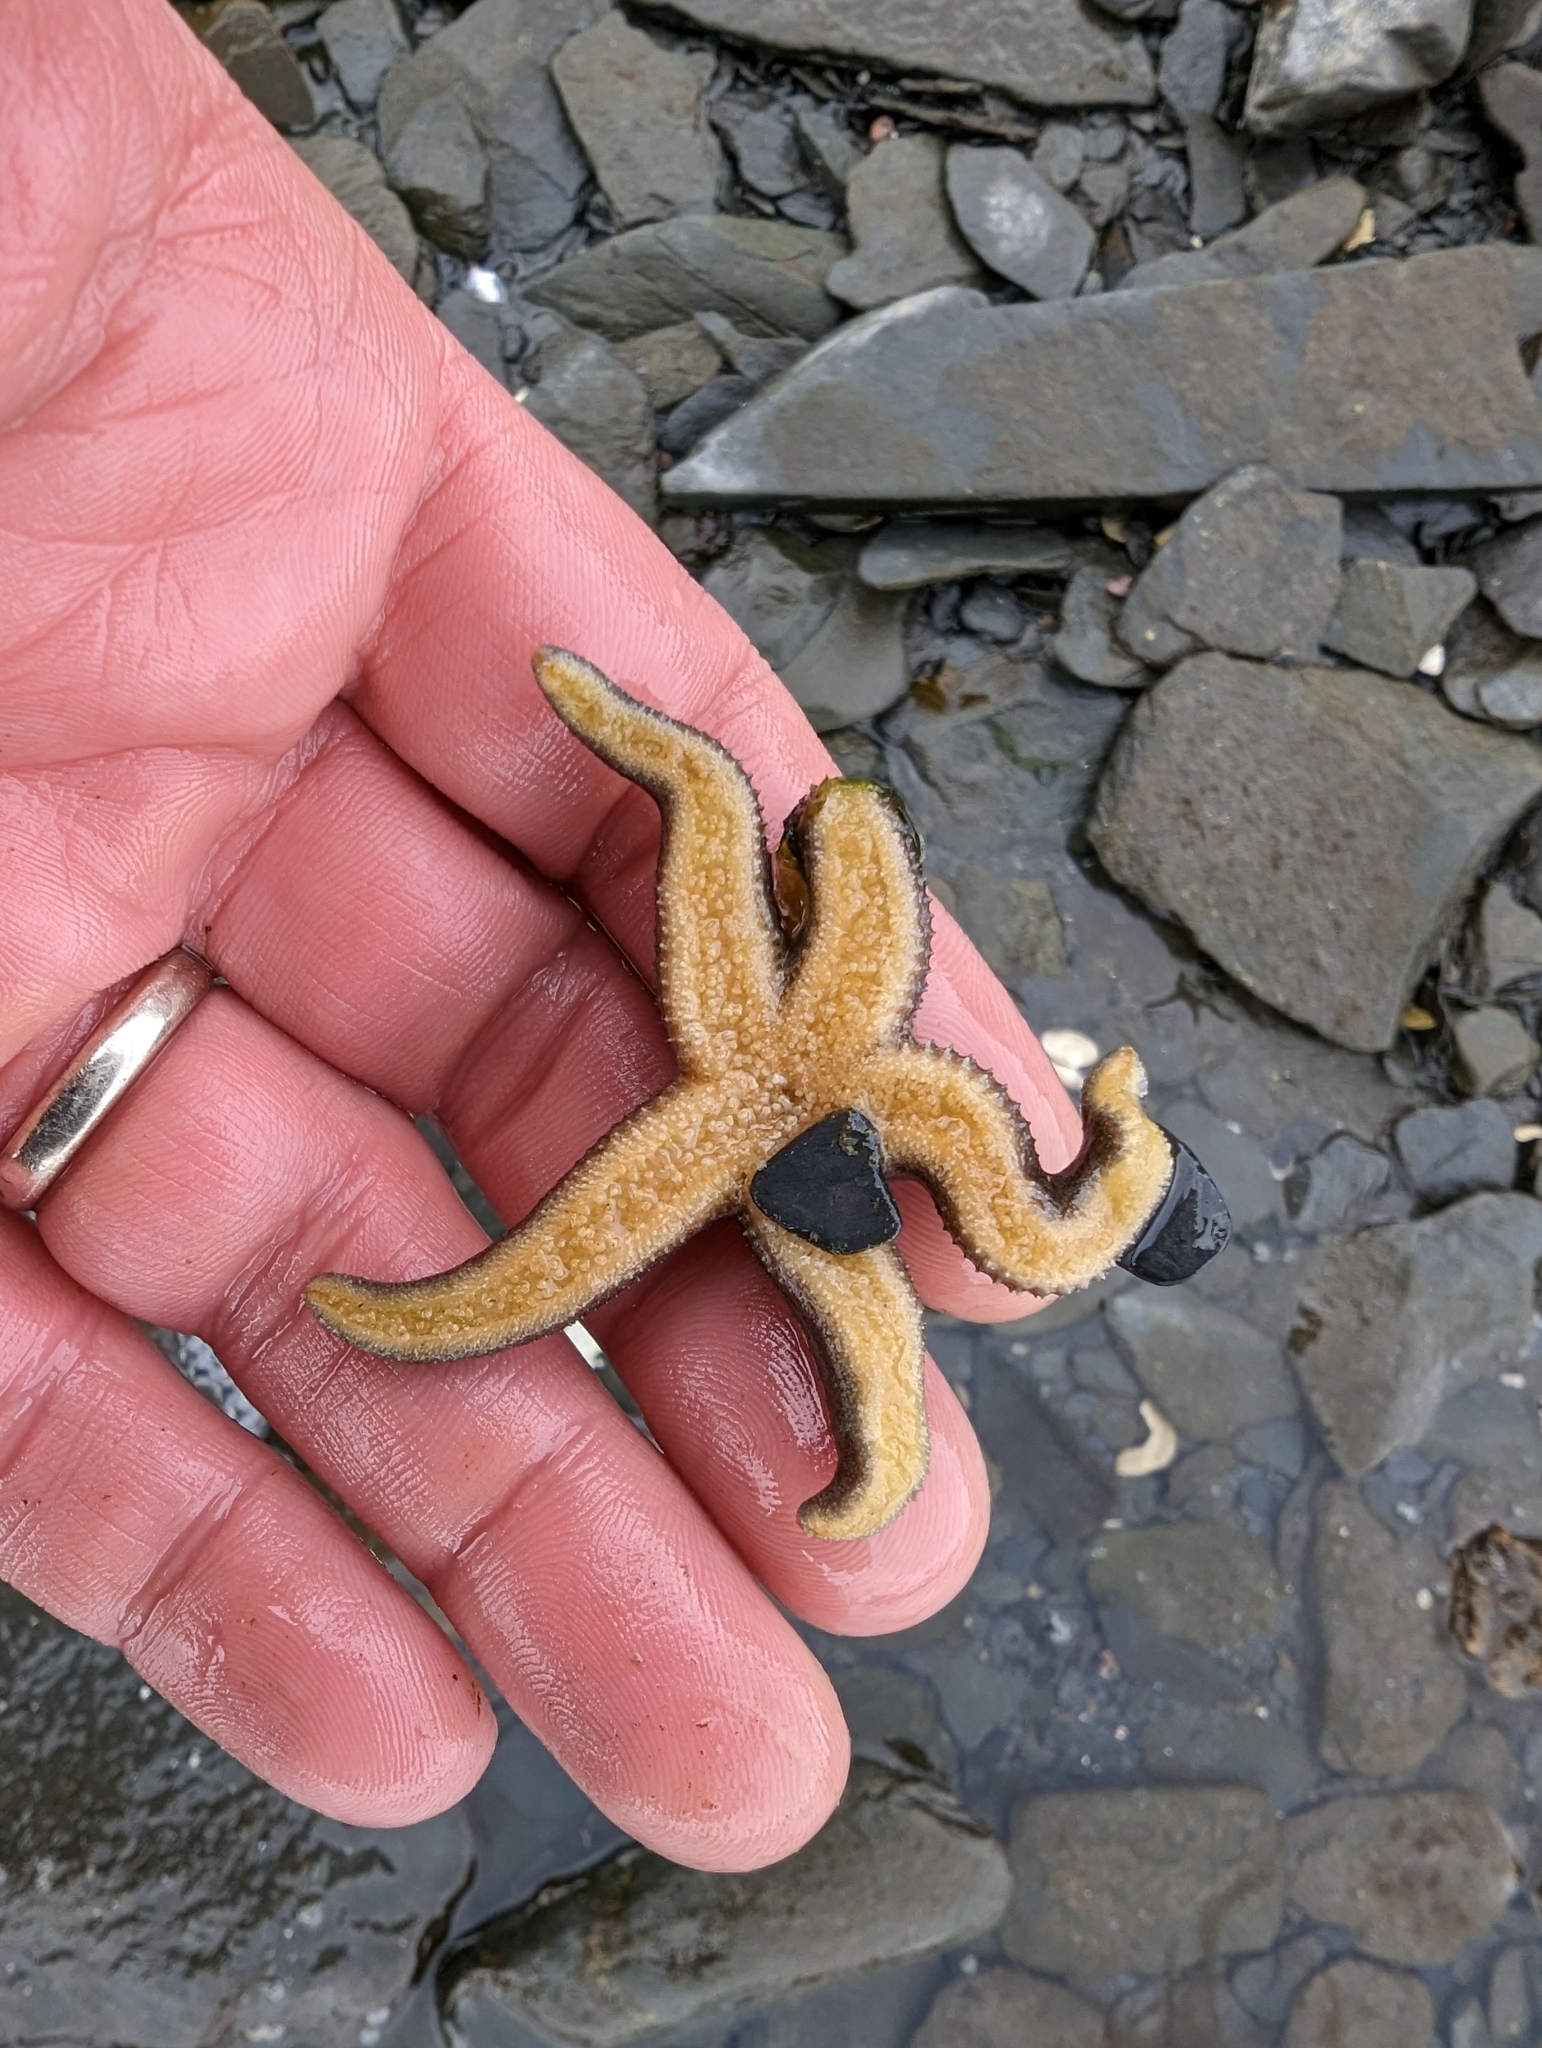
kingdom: Animalia
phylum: Echinodermata
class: Asteroidea
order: Forcipulatida
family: Asteriidae
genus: Evasterias
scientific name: Evasterias troschelii
